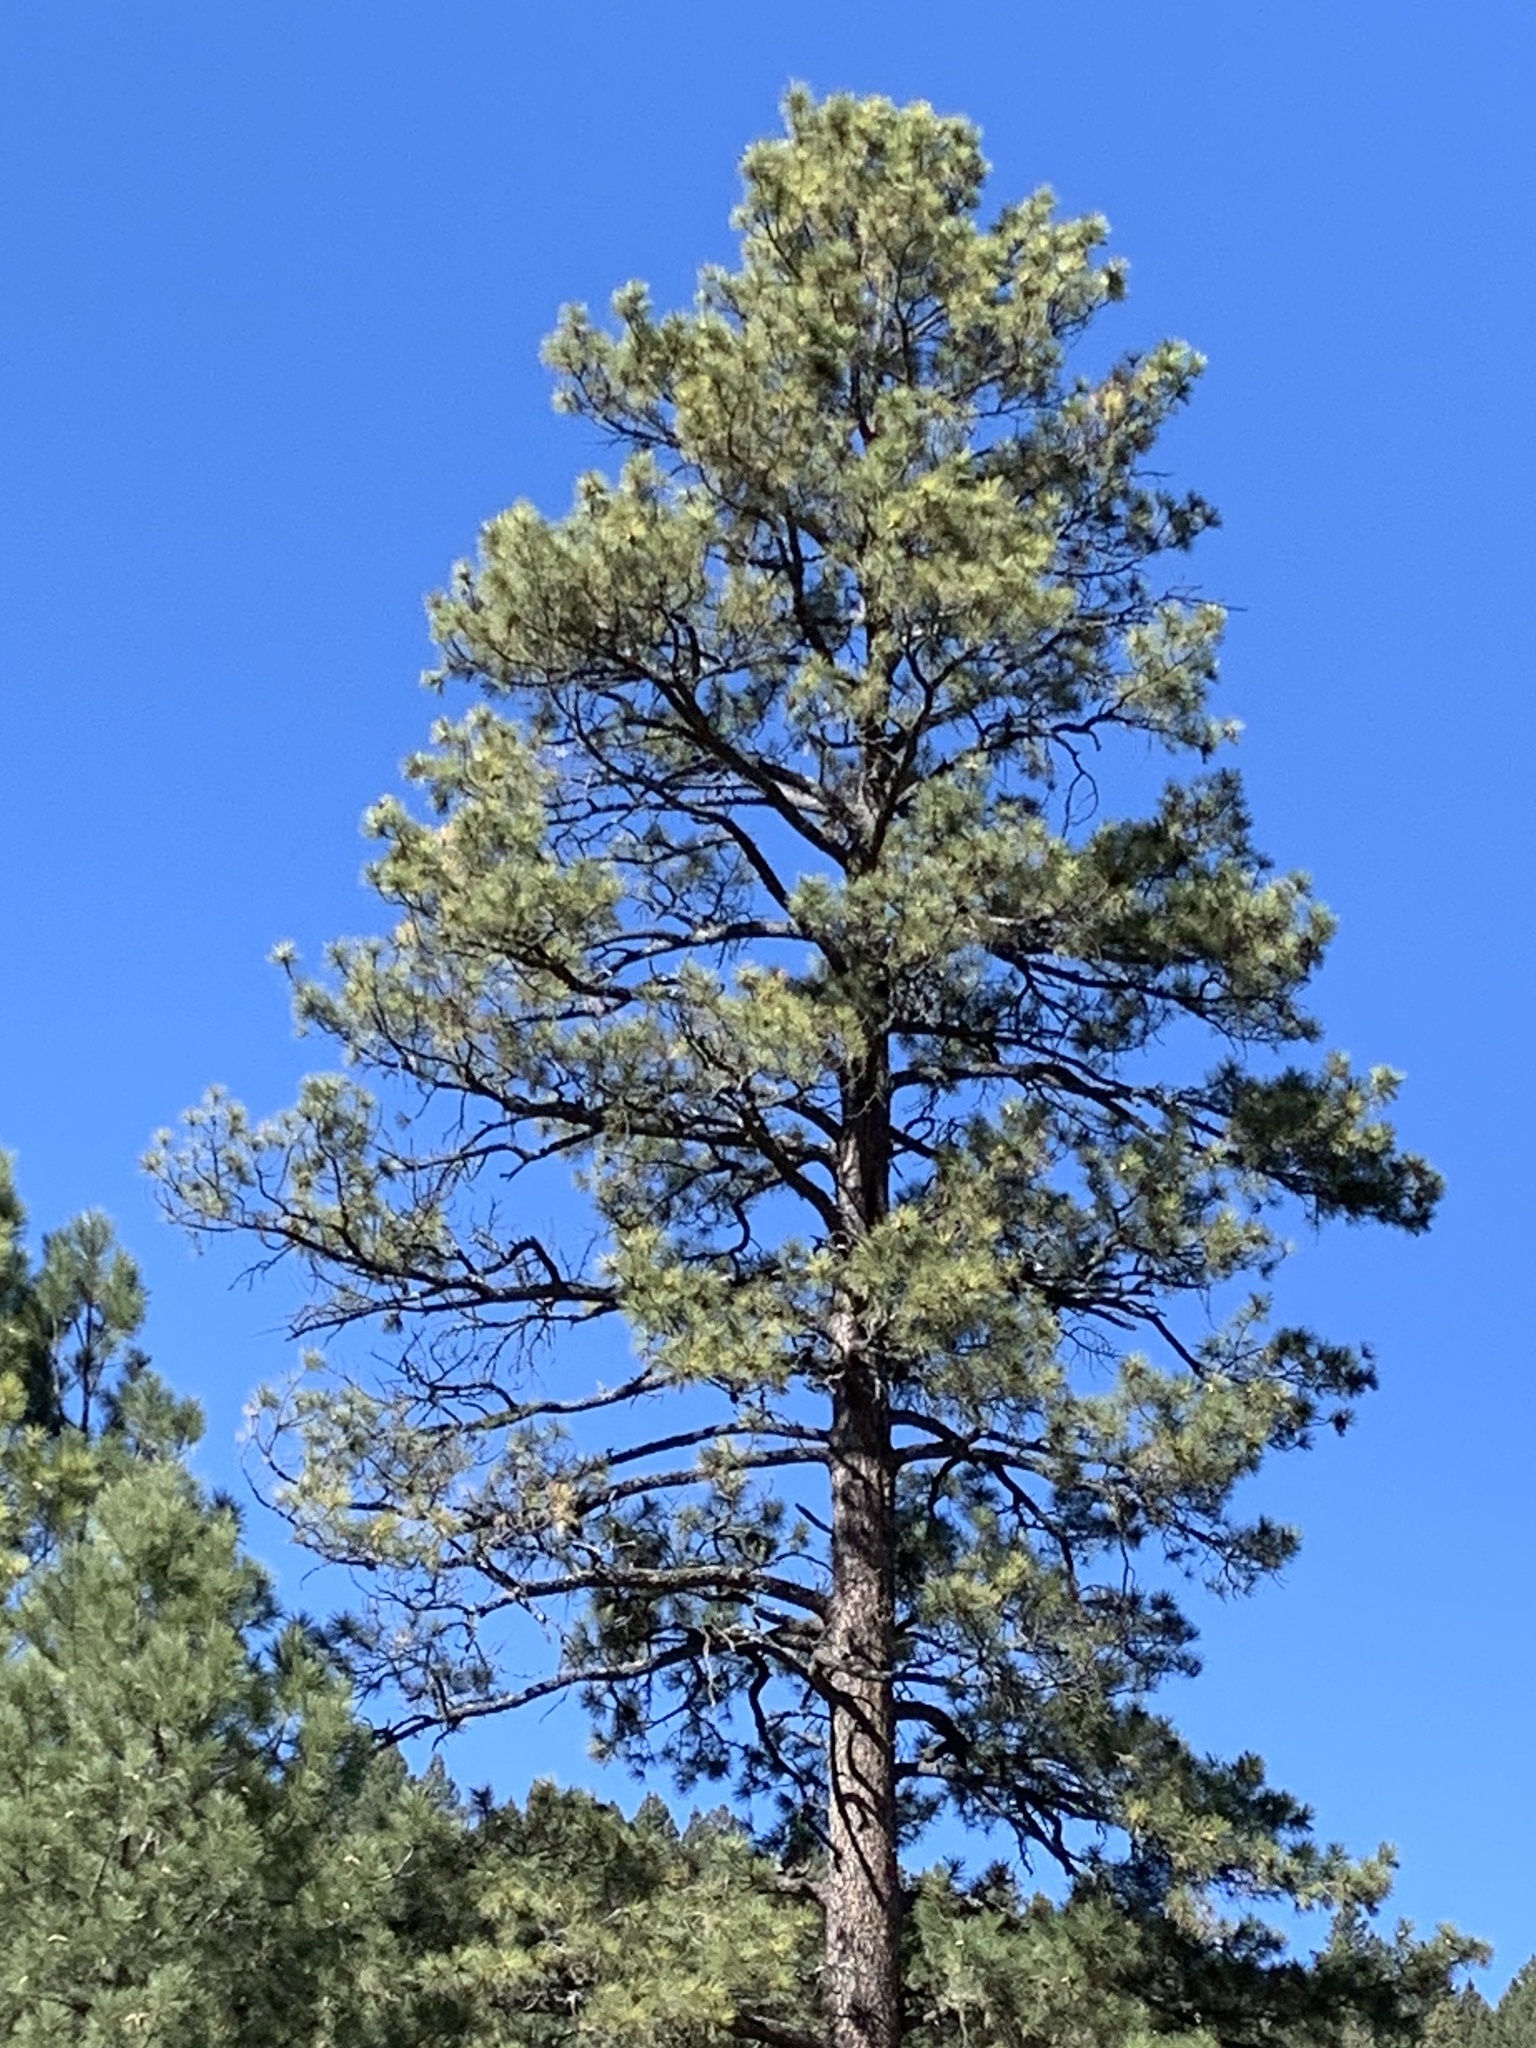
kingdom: Plantae
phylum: Tracheophyta
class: Pinopsida
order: Pinales
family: Pinaceae
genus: Pinus
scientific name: Pinus ponderosa
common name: Western yellow-pine
